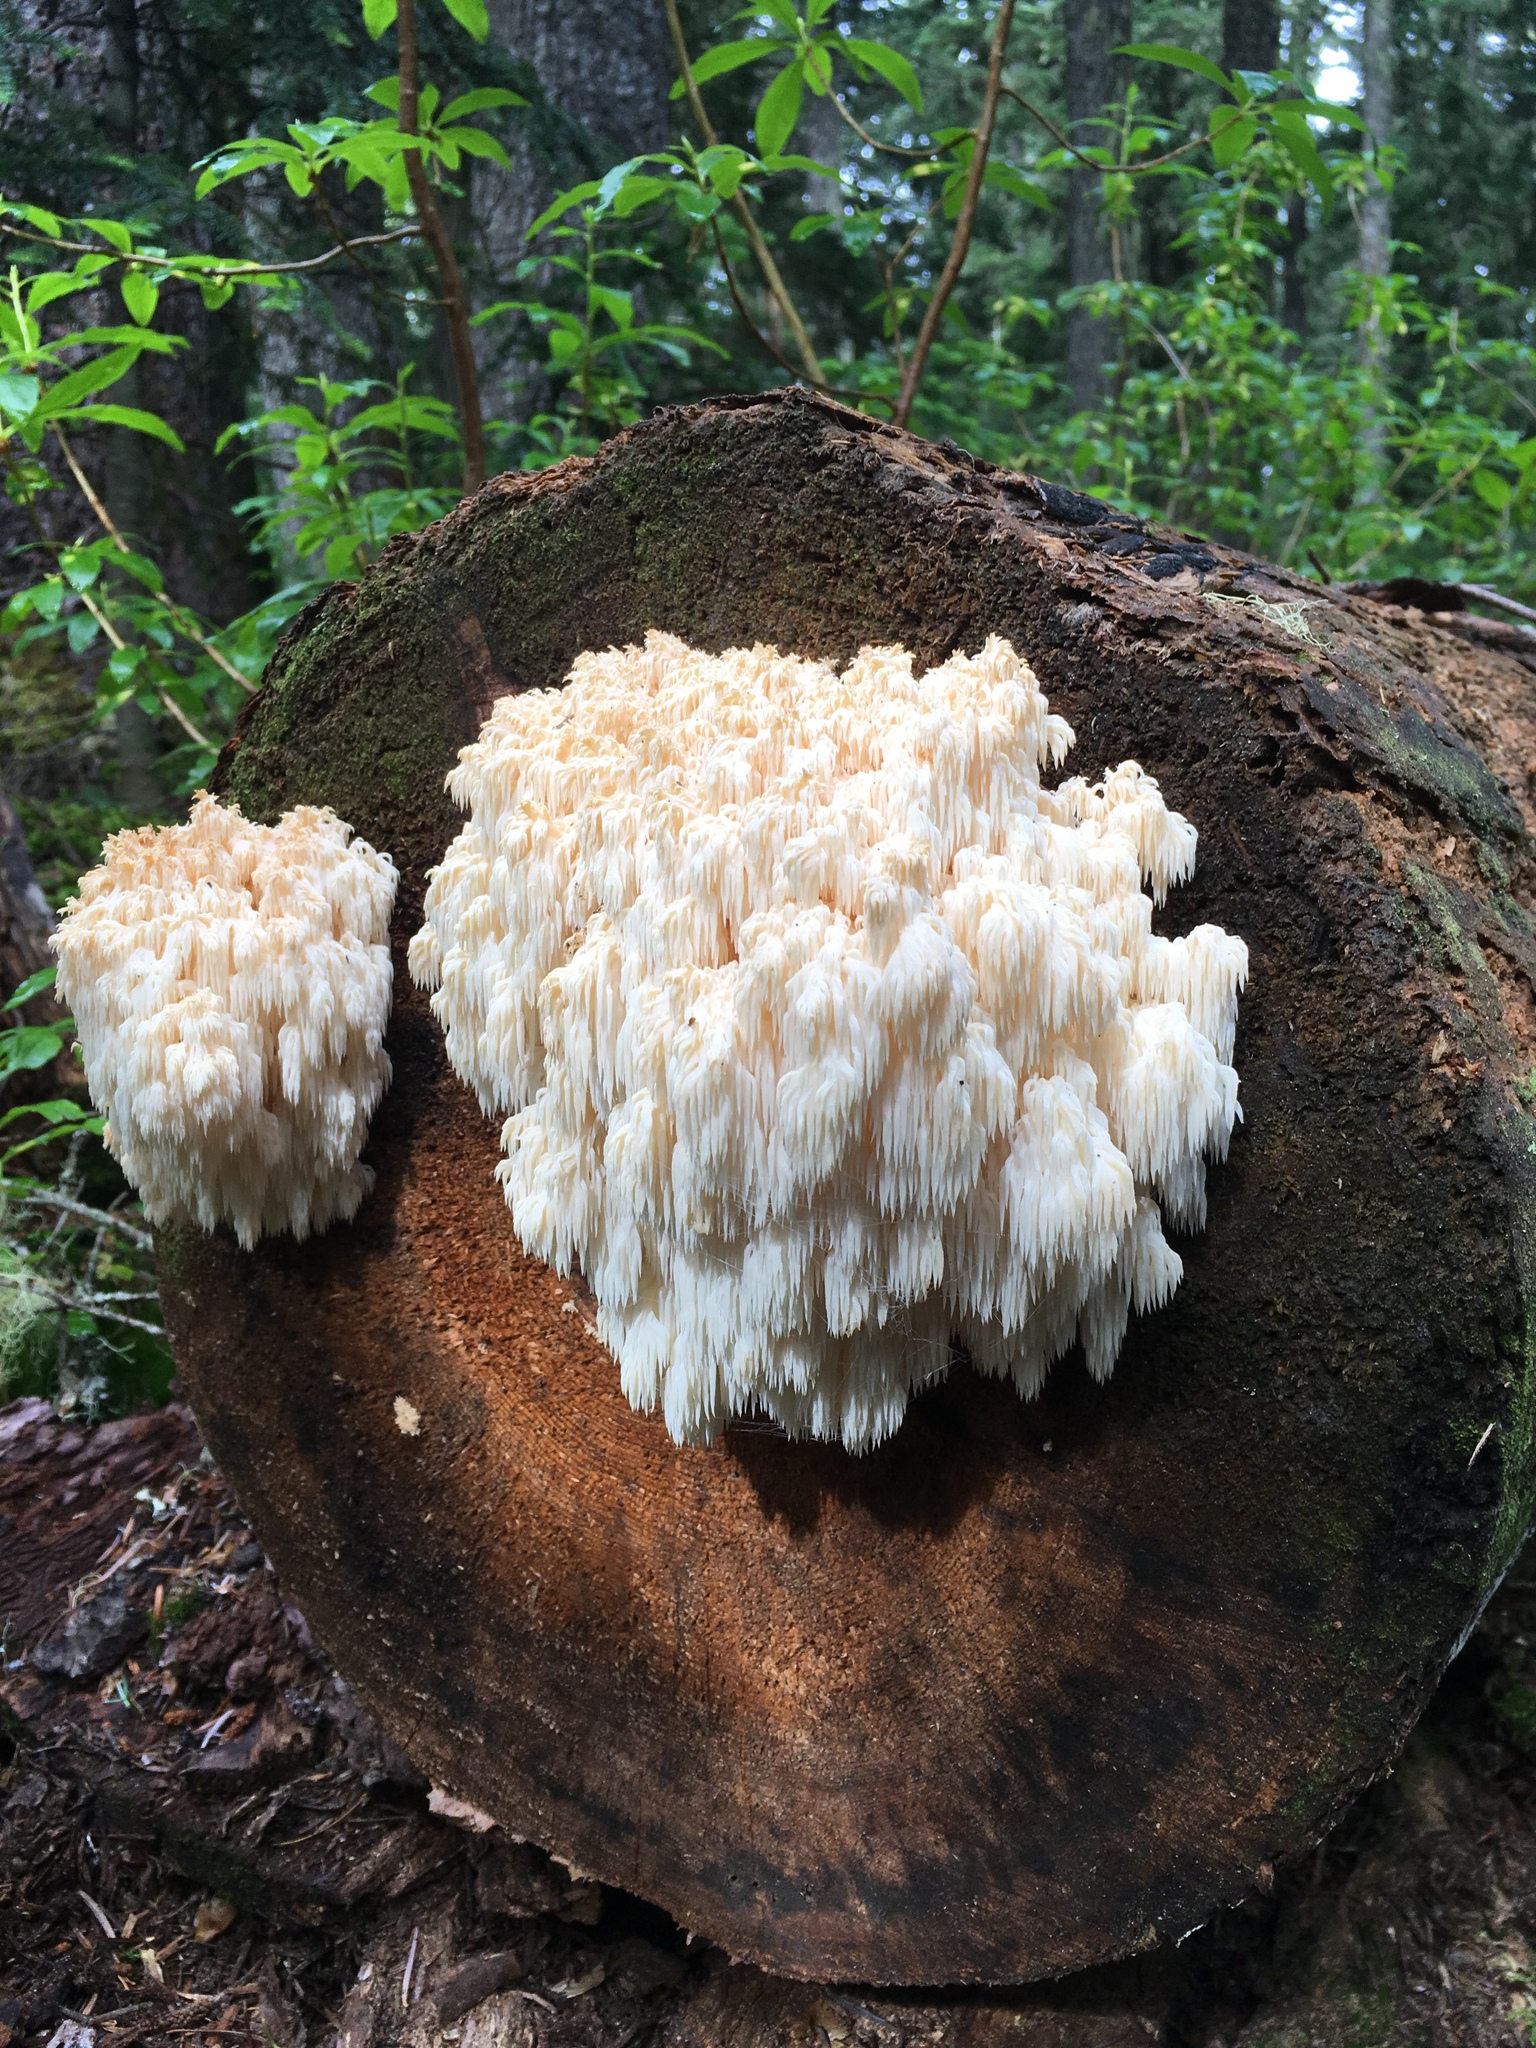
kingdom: Fungi
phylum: Basidiomycota
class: Agaricomycetes
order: Russulales
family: Hericiaceae
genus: Hericium
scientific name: Hericium abietis
